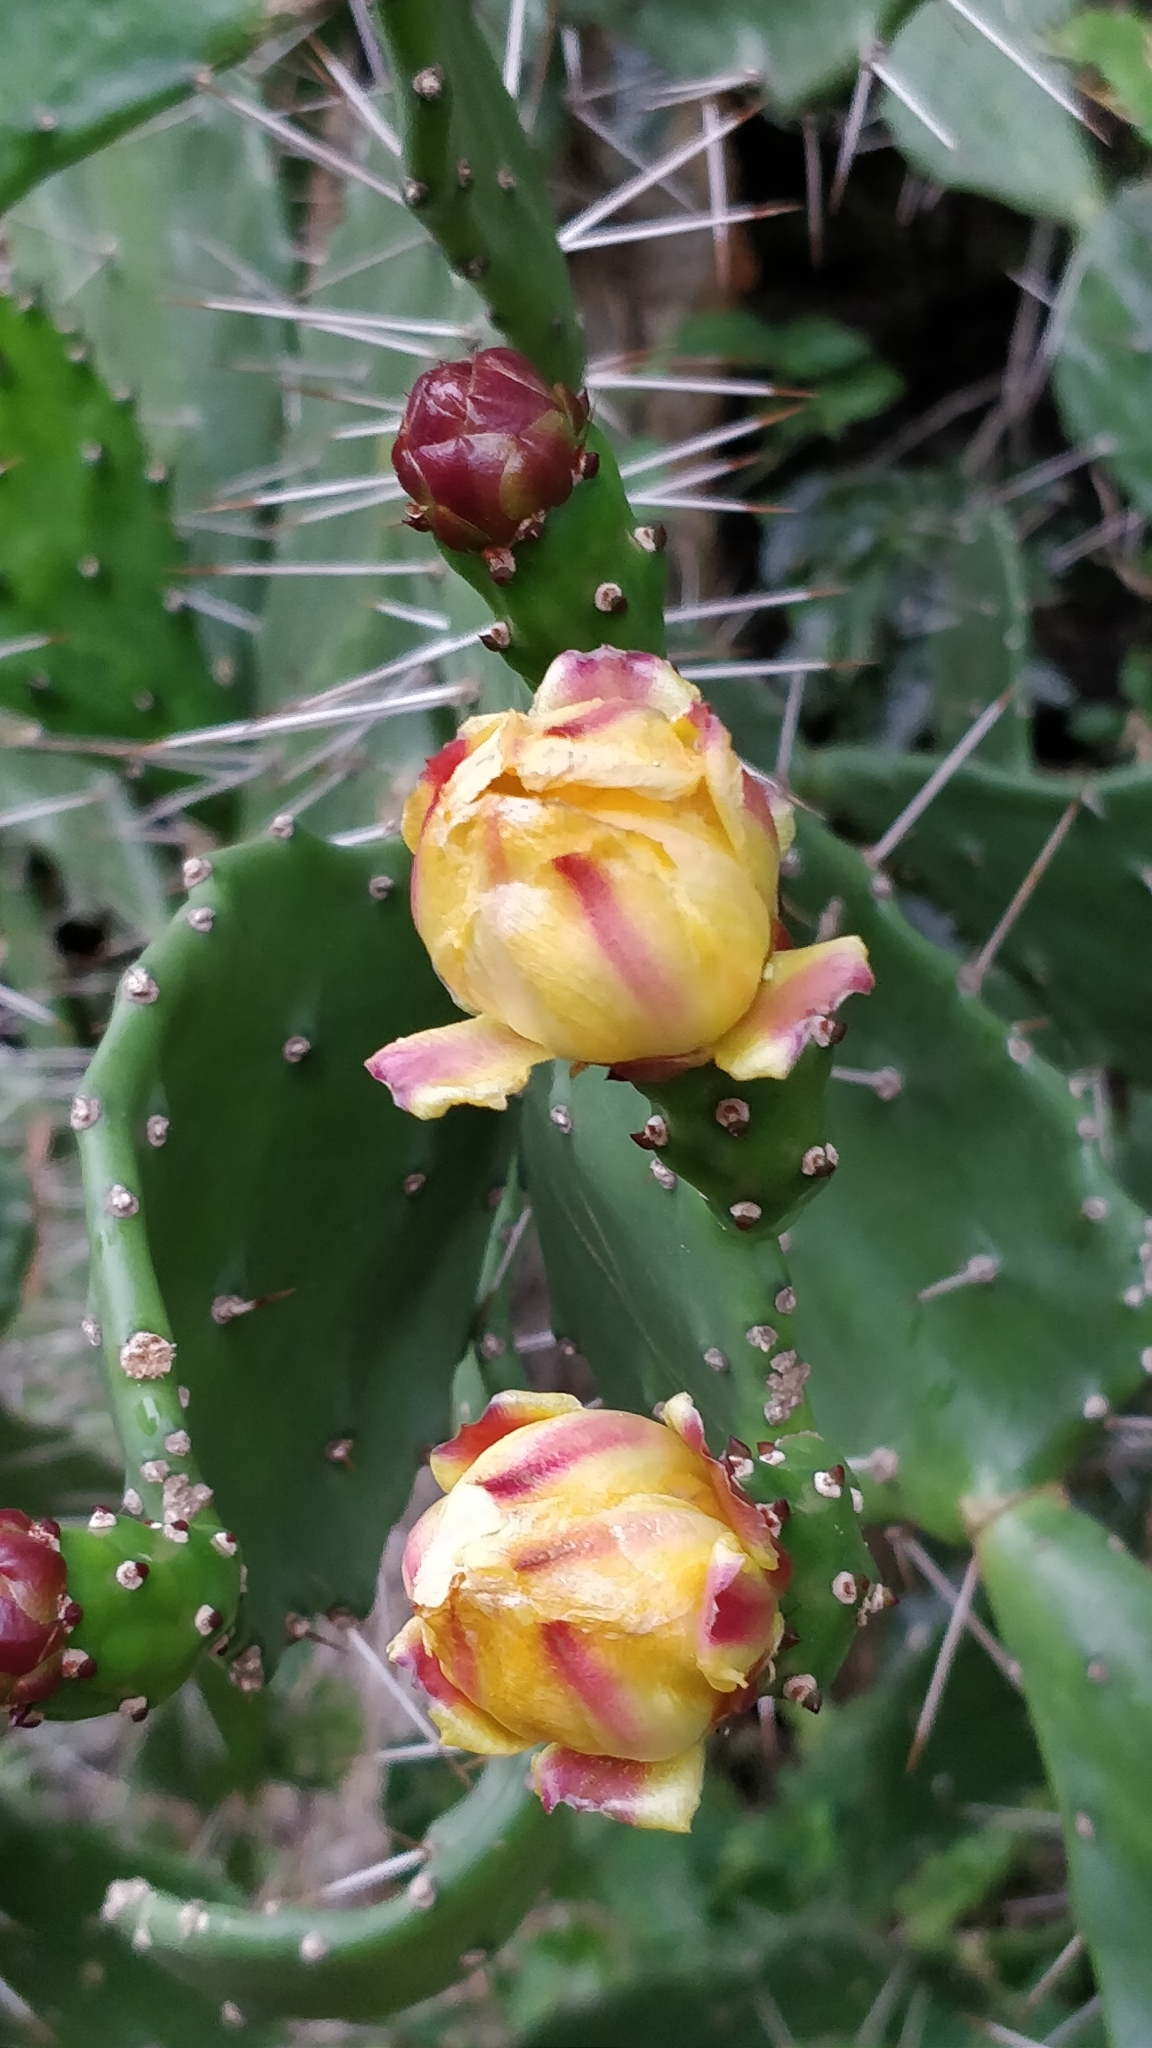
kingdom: Plantae
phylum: Tracheophyta
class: Magnoliopsida
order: Caryophyllales
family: Cactaceae
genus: Opuntia
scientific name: Opuntia monacantha
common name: Common pricklypear
